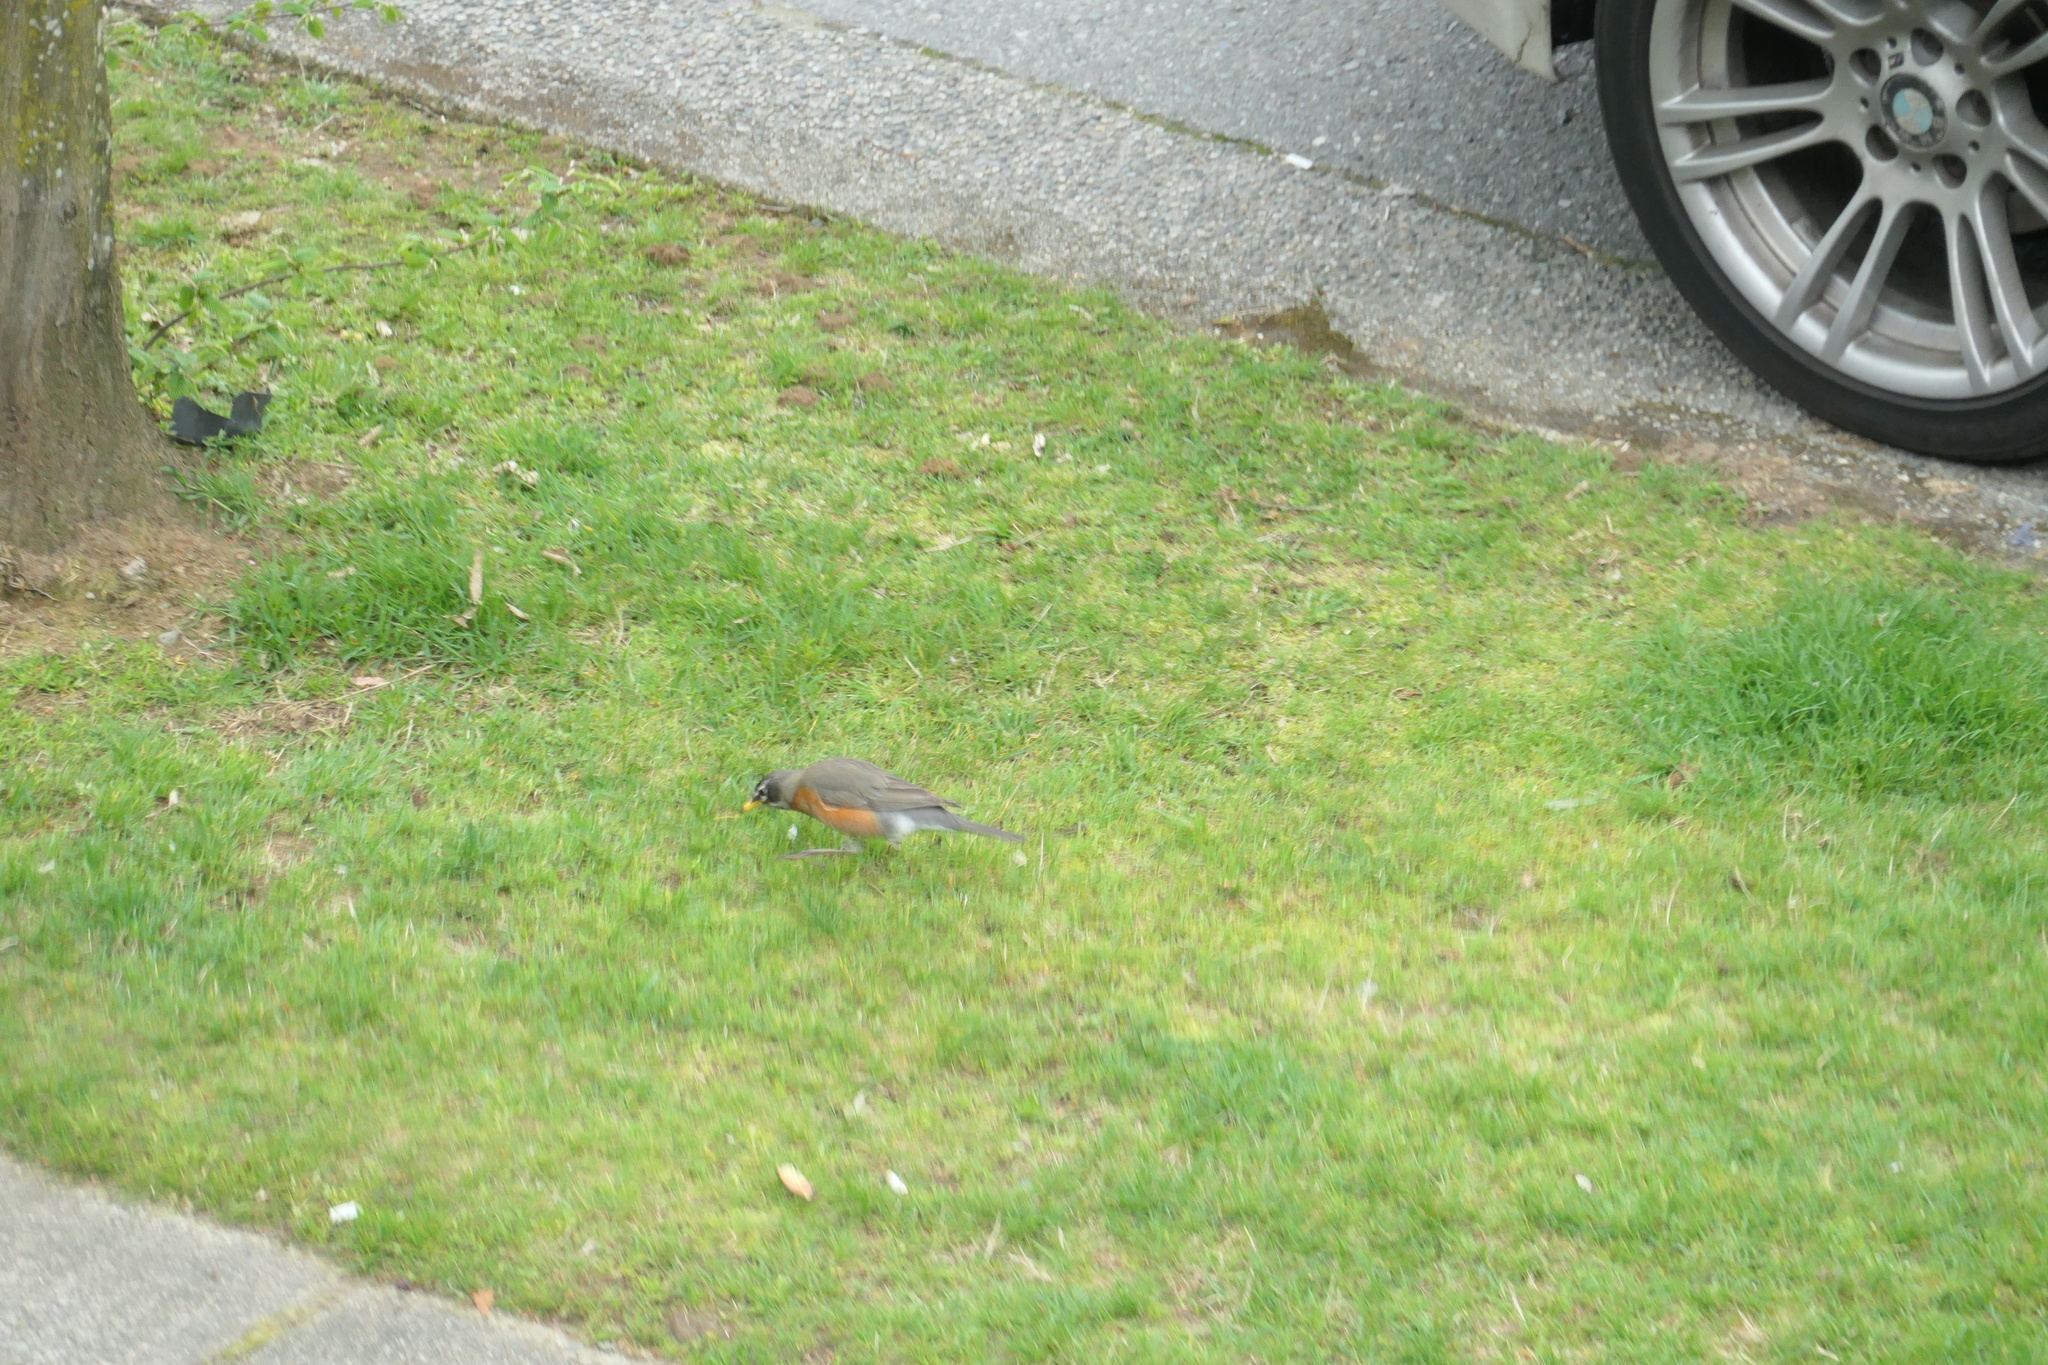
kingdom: Animalia
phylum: Chordata
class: Aves
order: Passeriformes
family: Turdidae
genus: Turdus
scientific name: Turdus migratorius
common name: American robin
